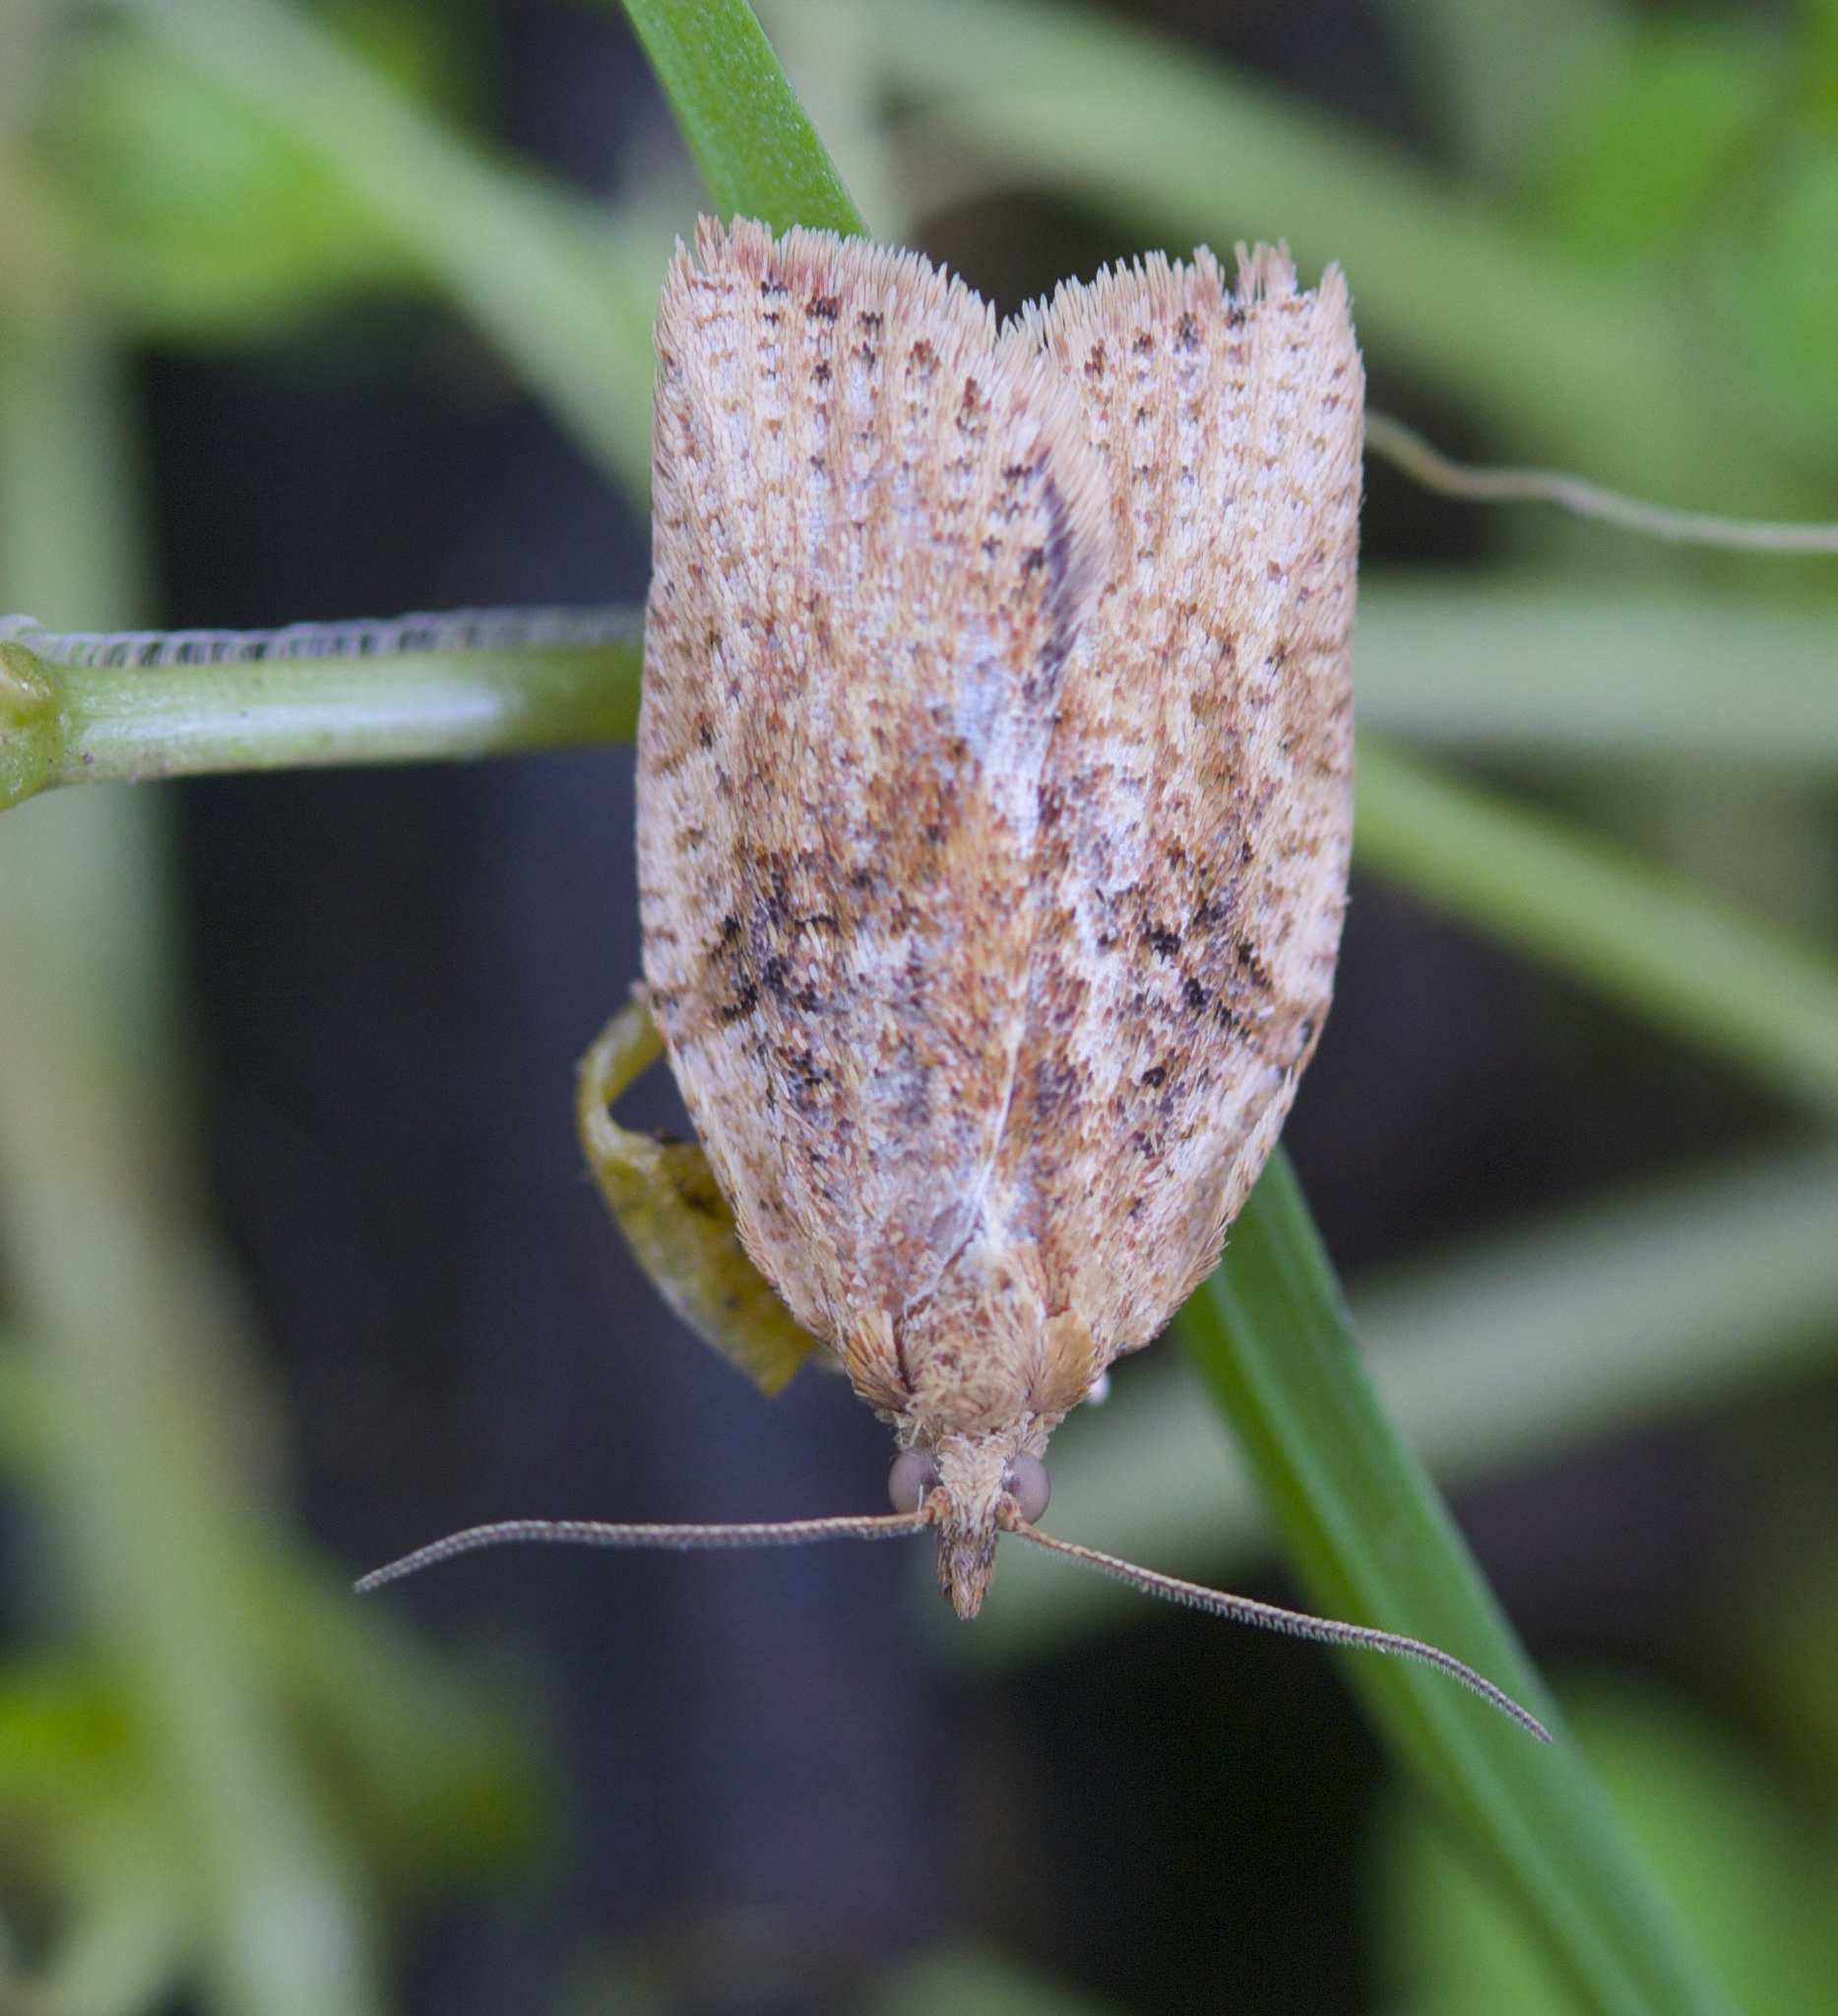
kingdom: Animalia
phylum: Arthropoda
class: Insecta
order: Lepidoptera
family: Tortricidae
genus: Epiphyas
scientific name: Epiphyas postvittana
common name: Light brown apple moth
